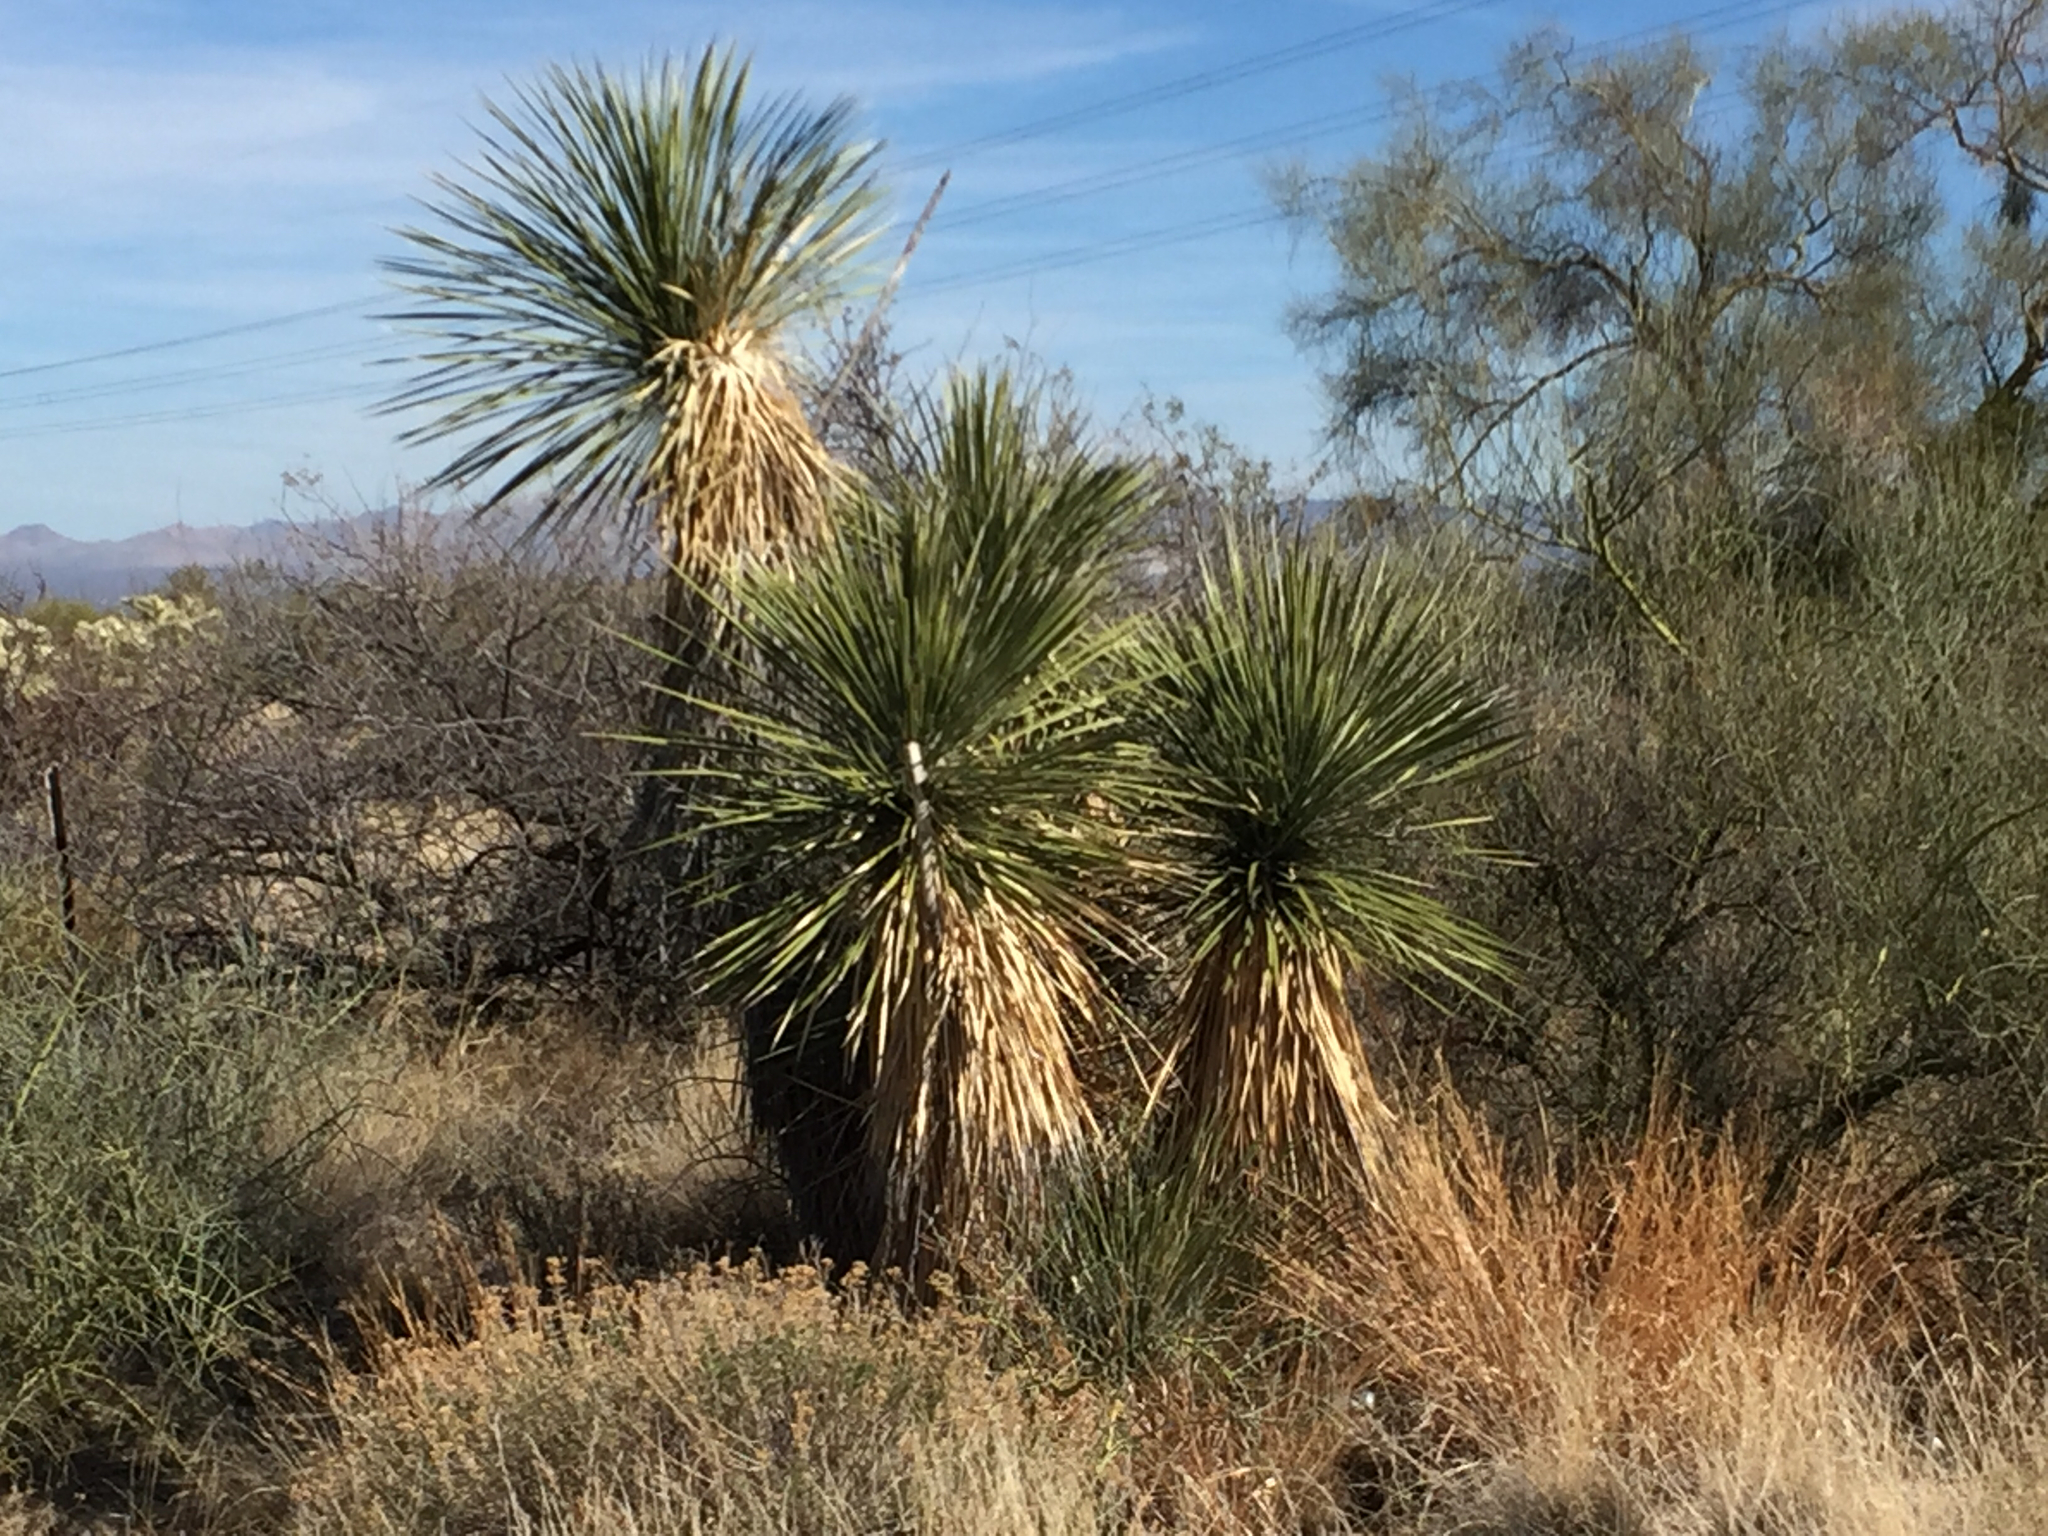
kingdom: Plantae
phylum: Tracheophyta
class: Liliopsida
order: Asparagales
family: Asparagaceae
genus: Yucca
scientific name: Yucca elata
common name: Palmella
